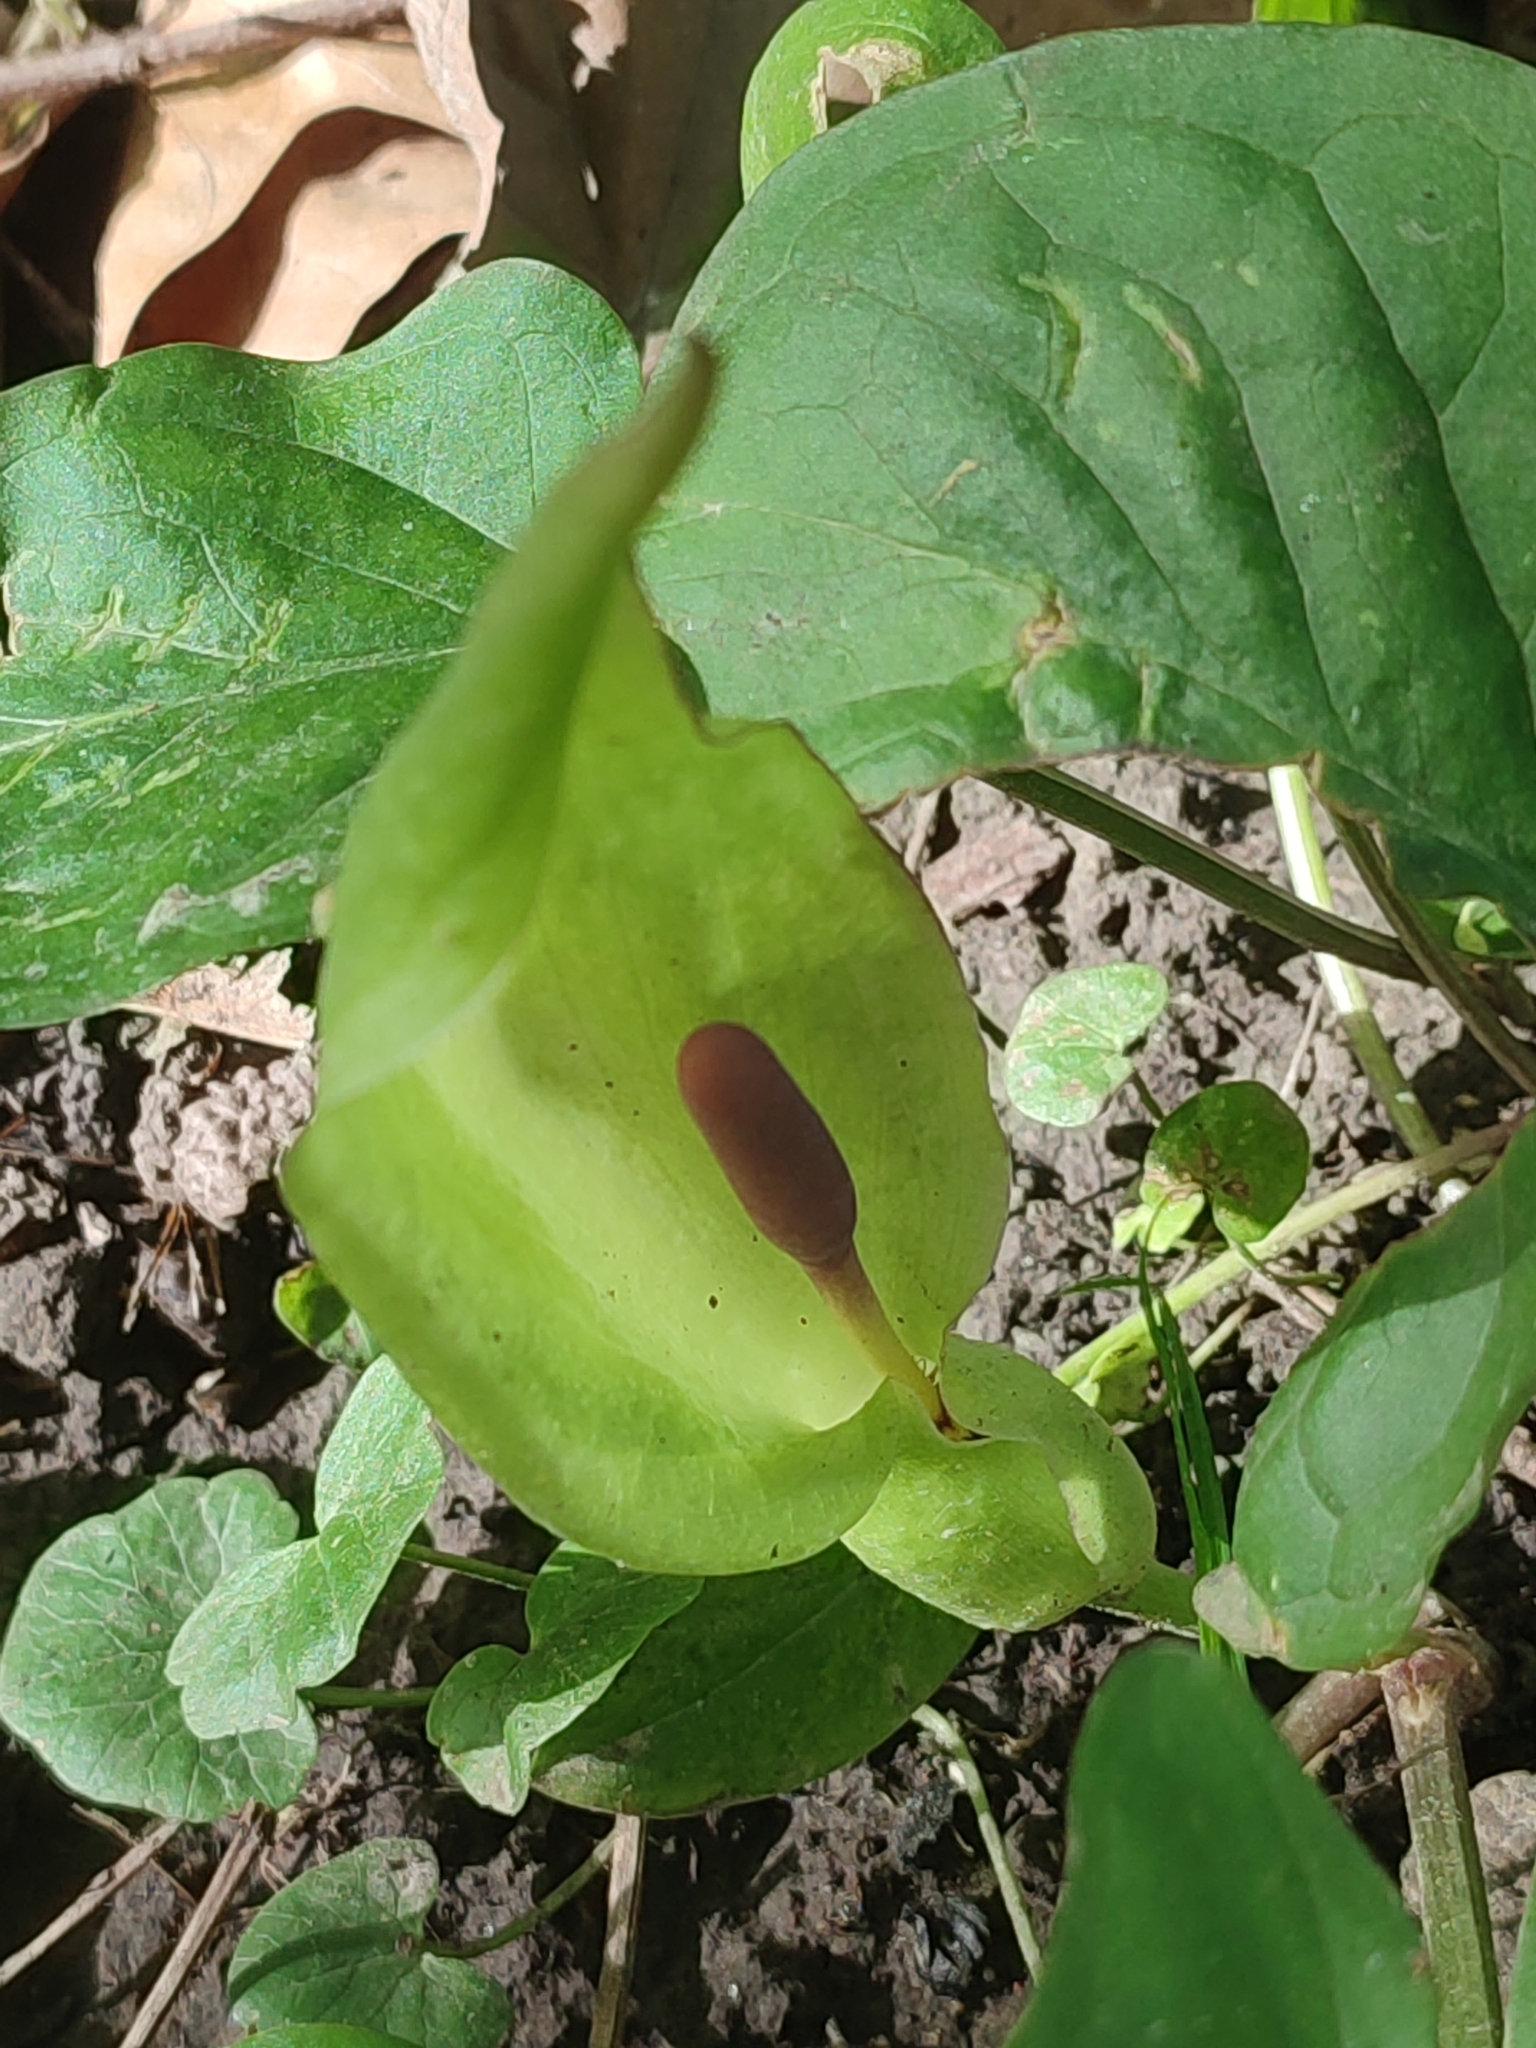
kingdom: Plantae
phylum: Tracheophyta
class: Liliopsida
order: Alismatales
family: Araceae
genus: Arum
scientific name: Arum maculatum
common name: Lords-and-ladies
